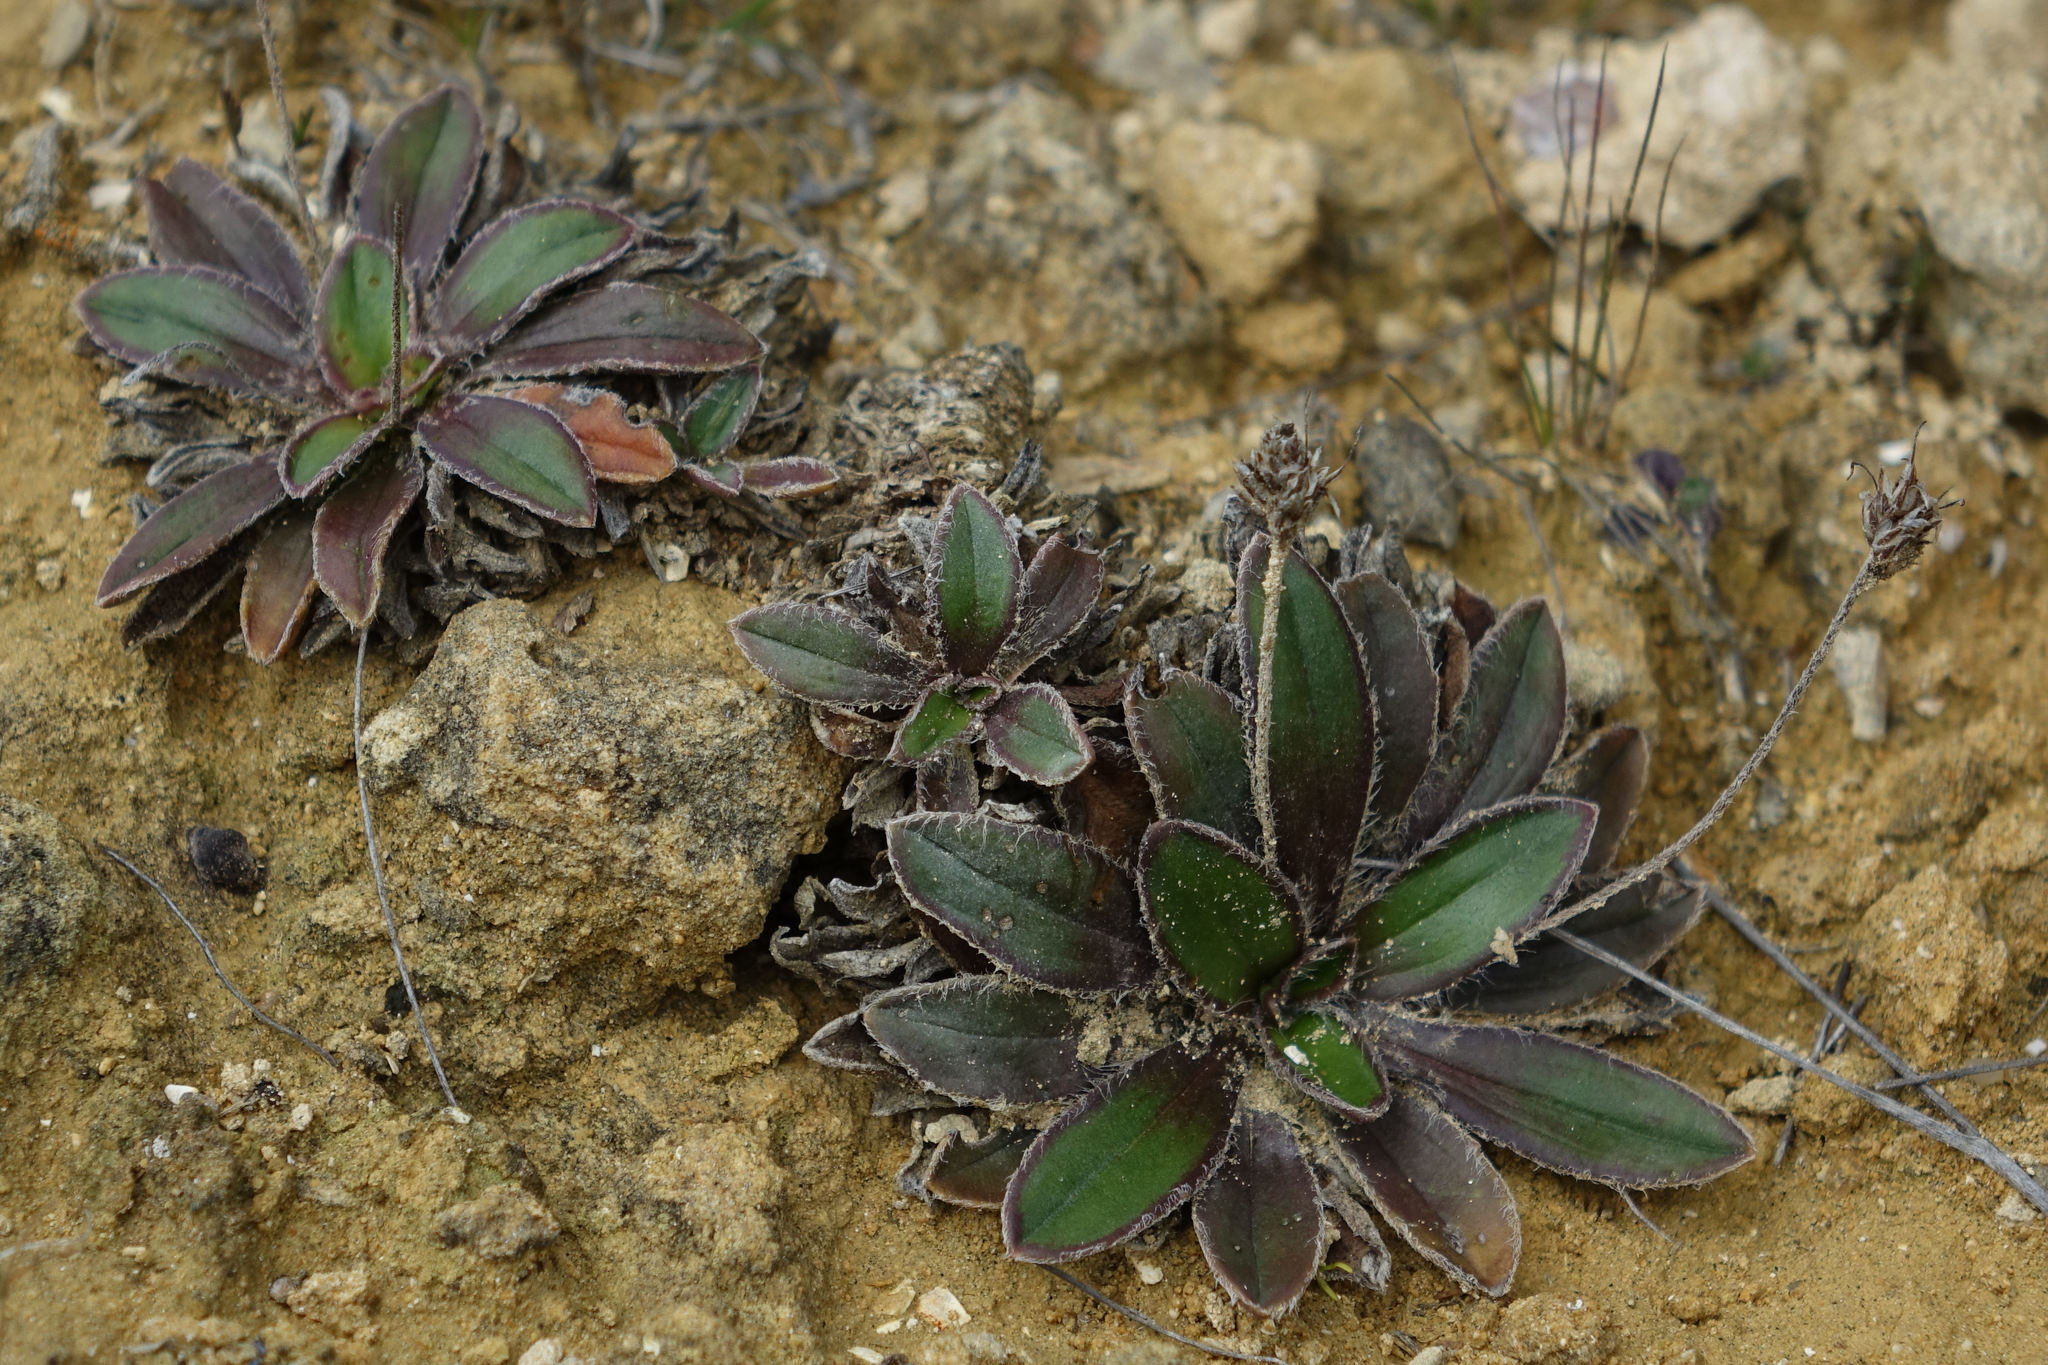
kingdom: Plantae
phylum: Tracheophyta
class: Magnoliopsida
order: Lamiales
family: Plantaginaceae
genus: Plantago
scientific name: Plantago spathulata
